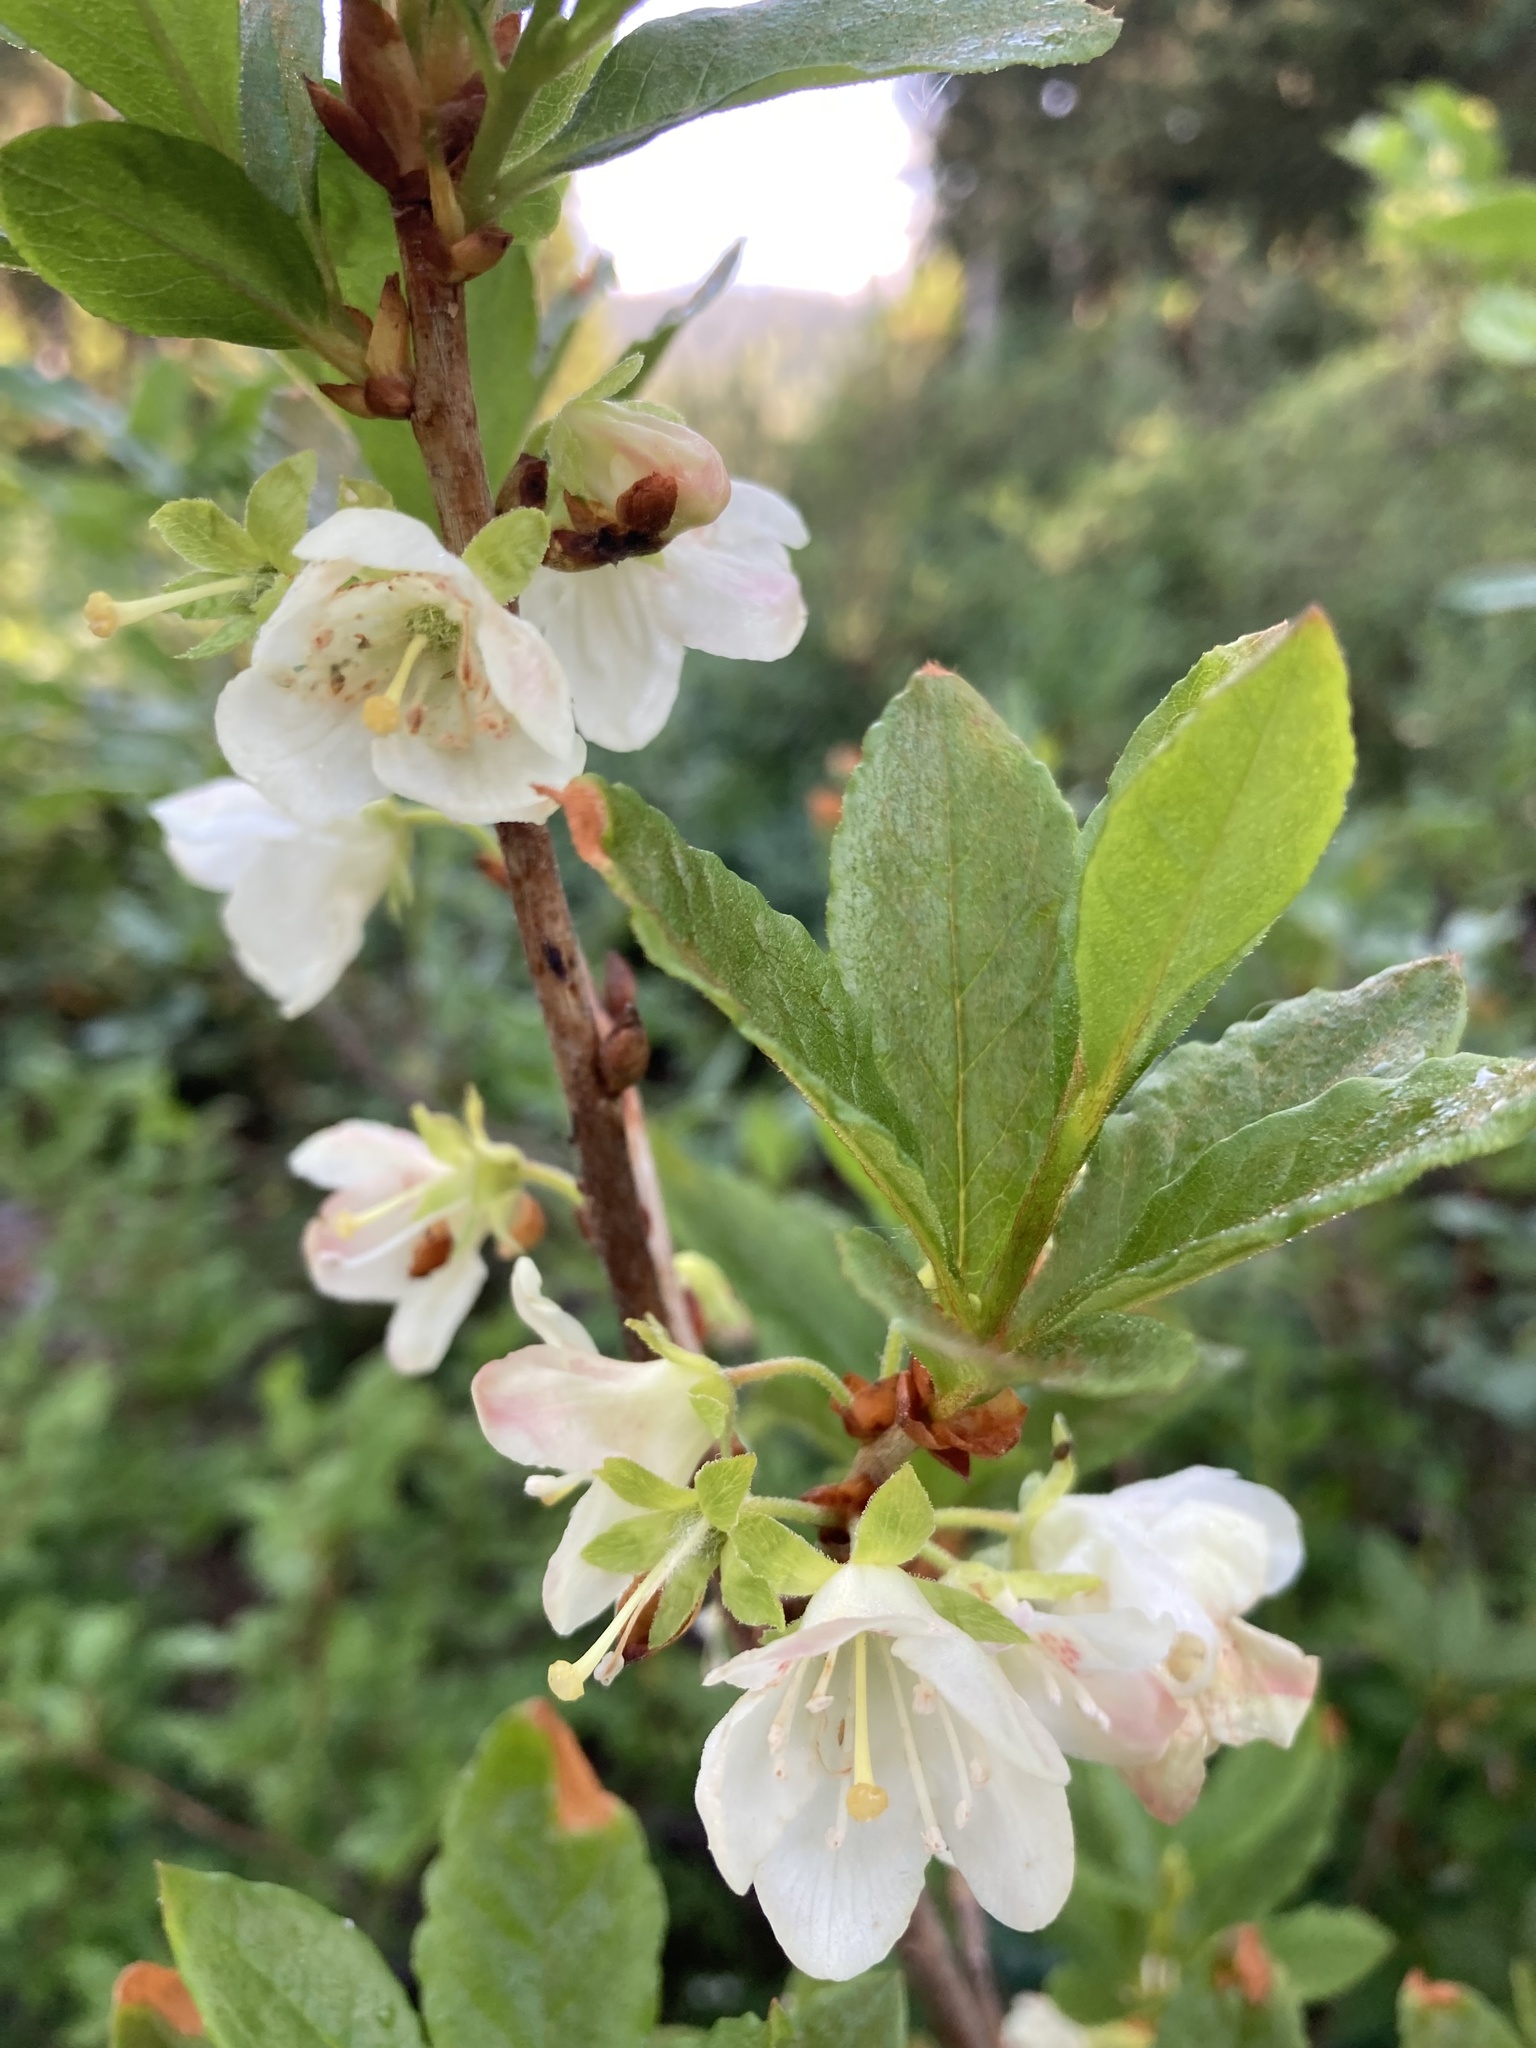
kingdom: Plantae
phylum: Tracheophyta
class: Magnoliopsida
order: Ericales
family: Ericaceae
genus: Rhododendron
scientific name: Rhododendron albiflorum
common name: White rhododendron
